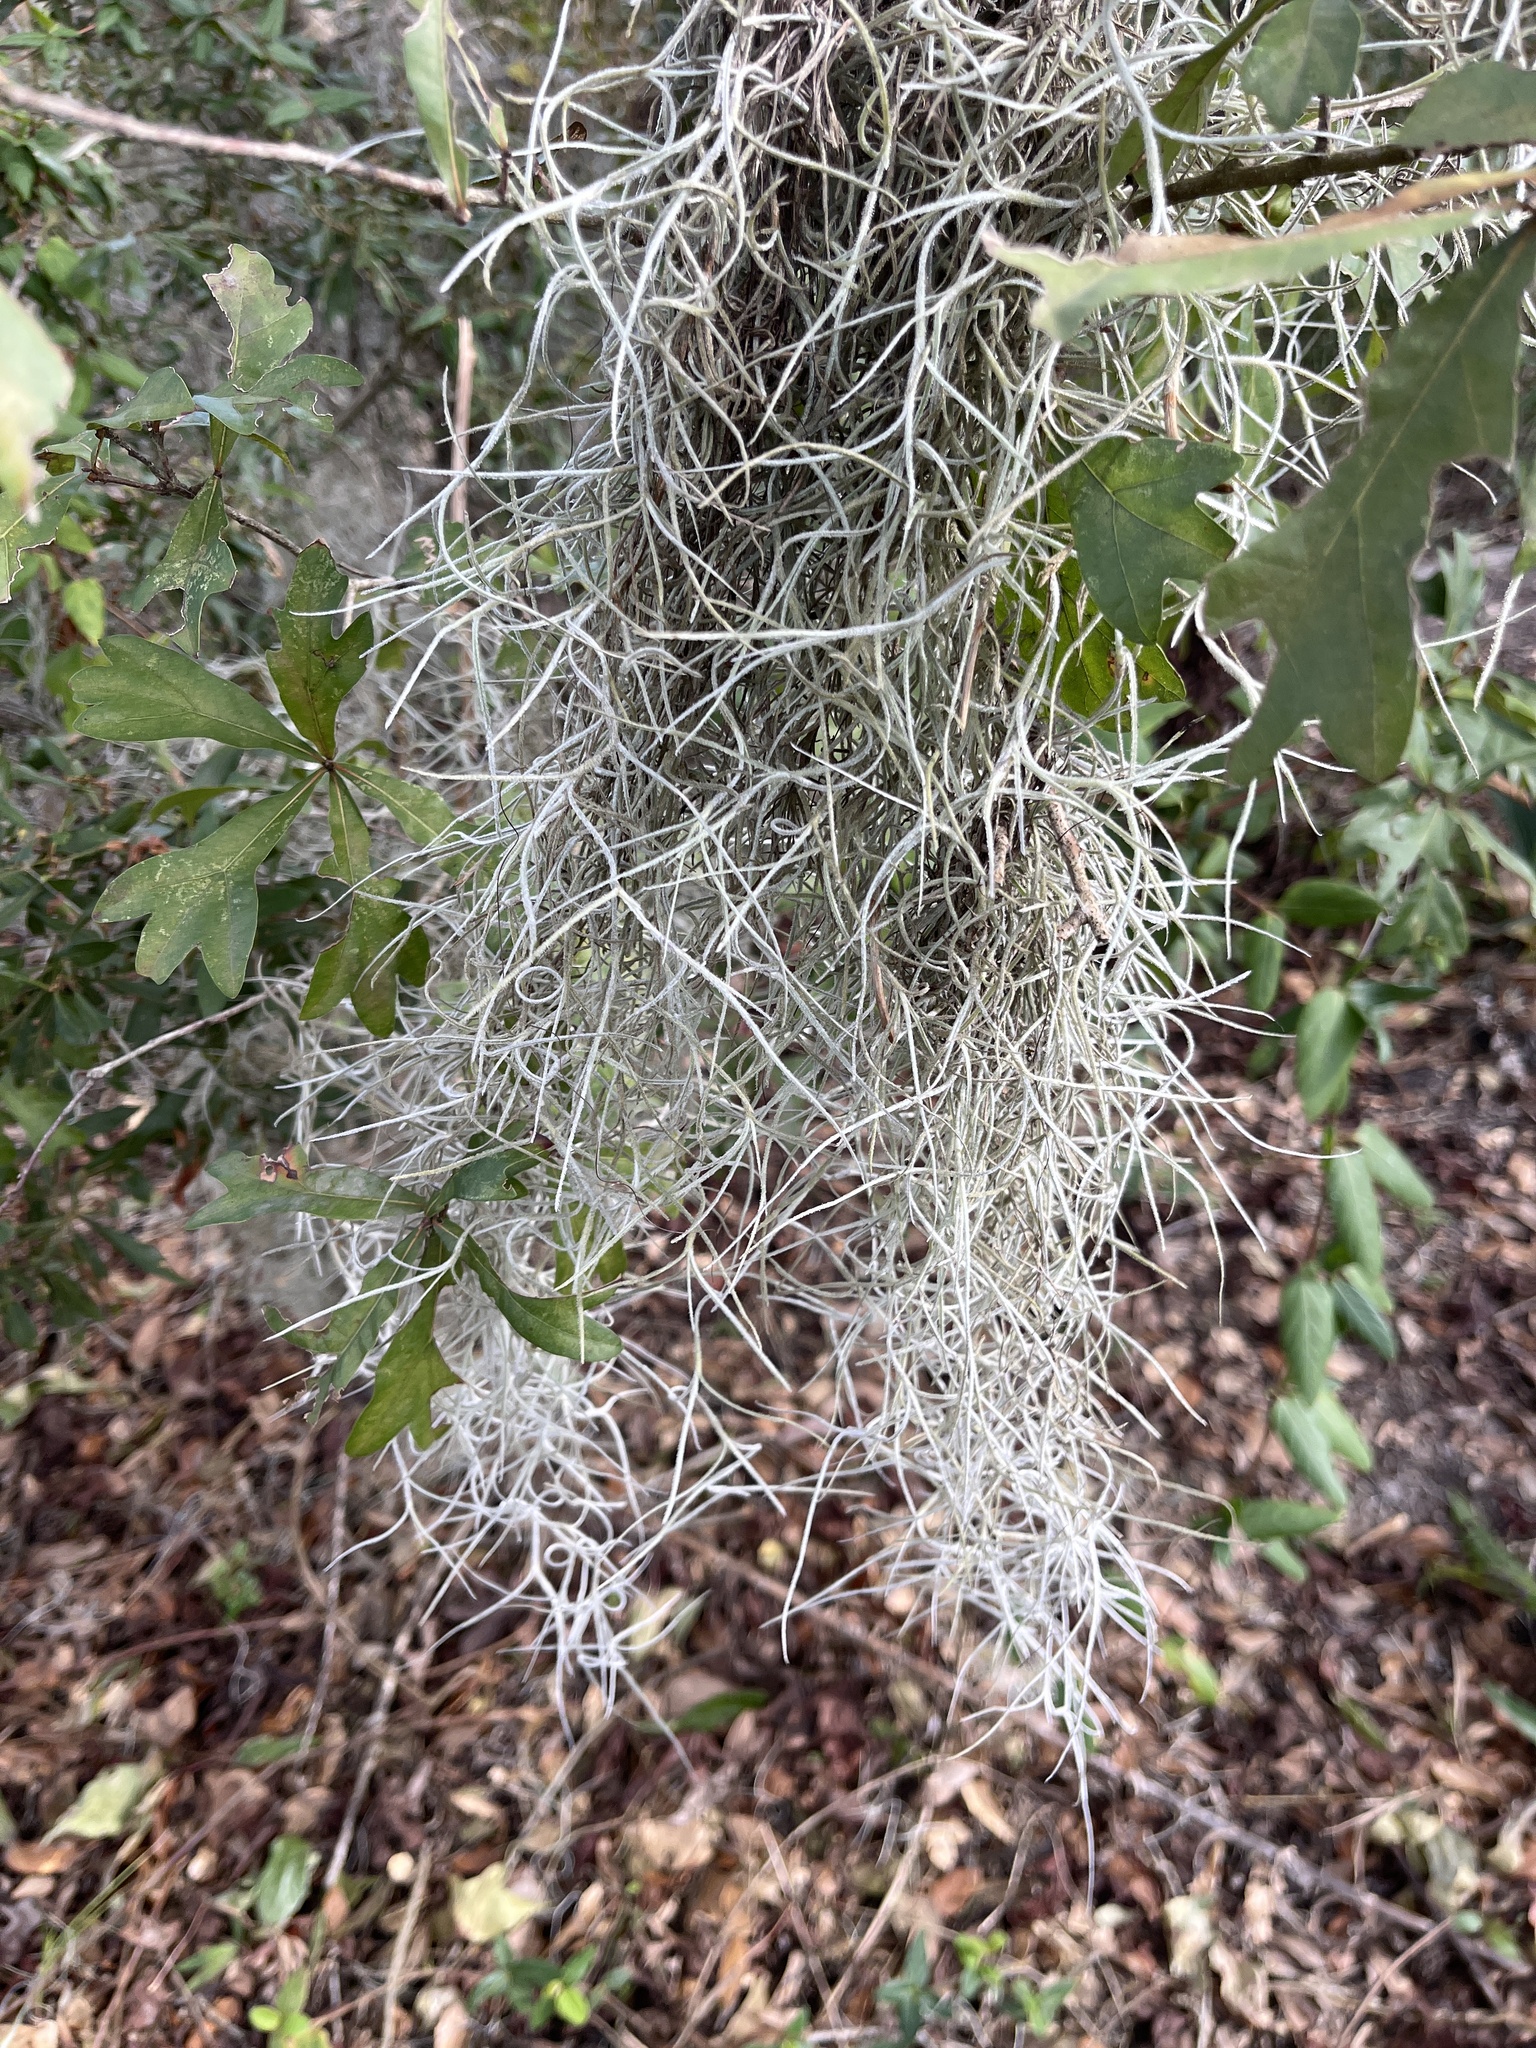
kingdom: Plantae
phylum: Tracheophyta
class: Liliopsida
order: Poales
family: Bromeliaceae
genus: Tillandsia
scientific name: Tillandsia usneoides
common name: Spanish moss
